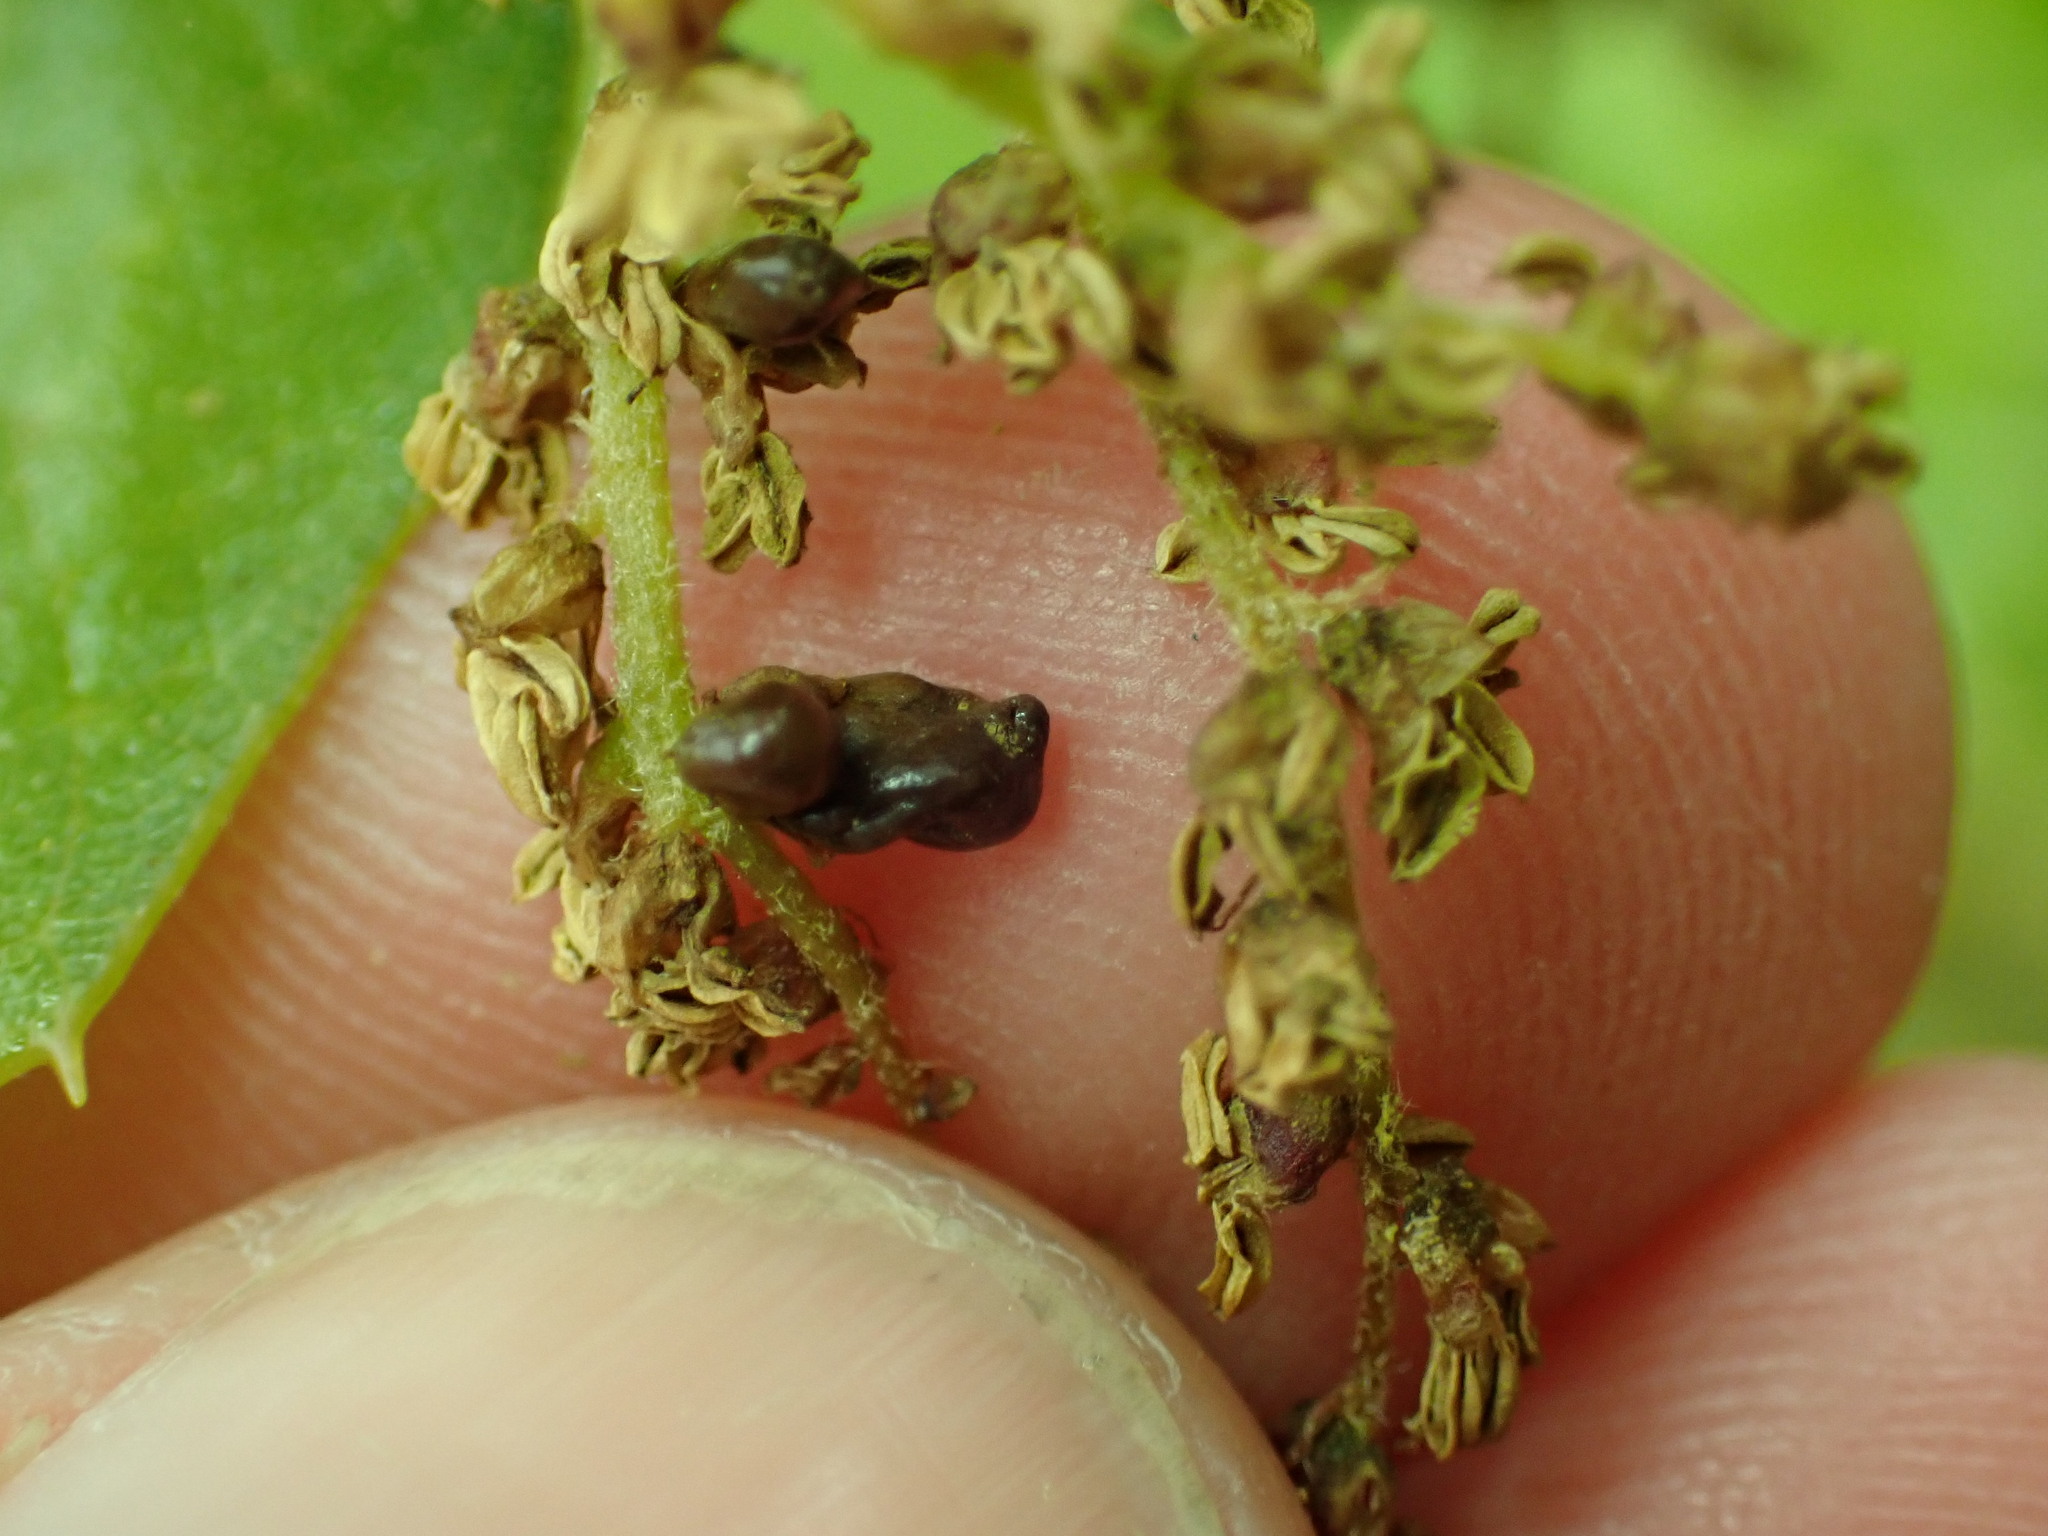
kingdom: Animalia
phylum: Arthropoda
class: Insecta
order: Hymenoptera
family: Cynipidae
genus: Dryocosmus
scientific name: Dryocosmus
